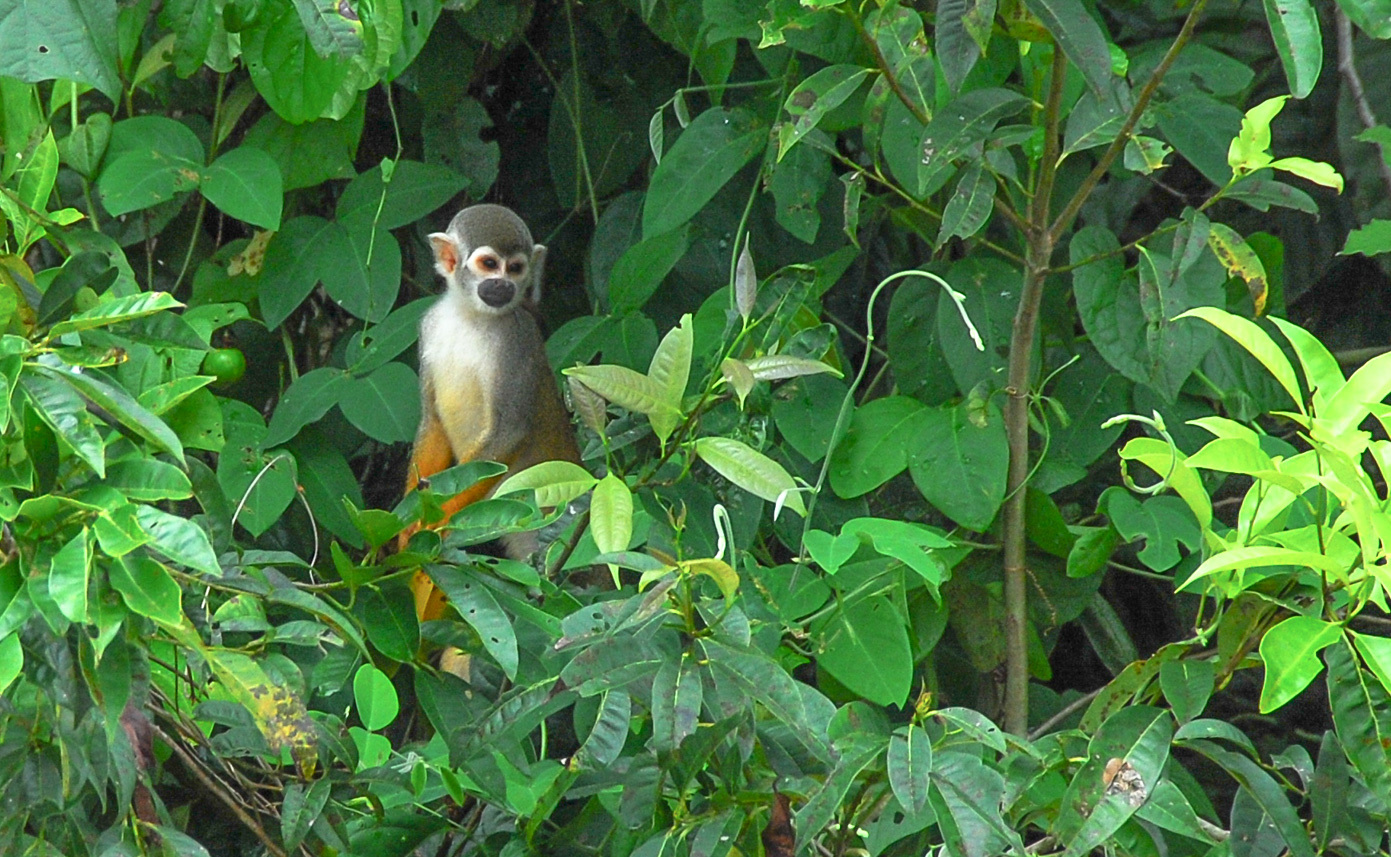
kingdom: Animalia
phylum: Chordata
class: Mammalia
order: Primates
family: Cebidae
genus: Saimiri
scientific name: Saimiri cassiquiarensis
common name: Humboldt’s squirrel monkey
